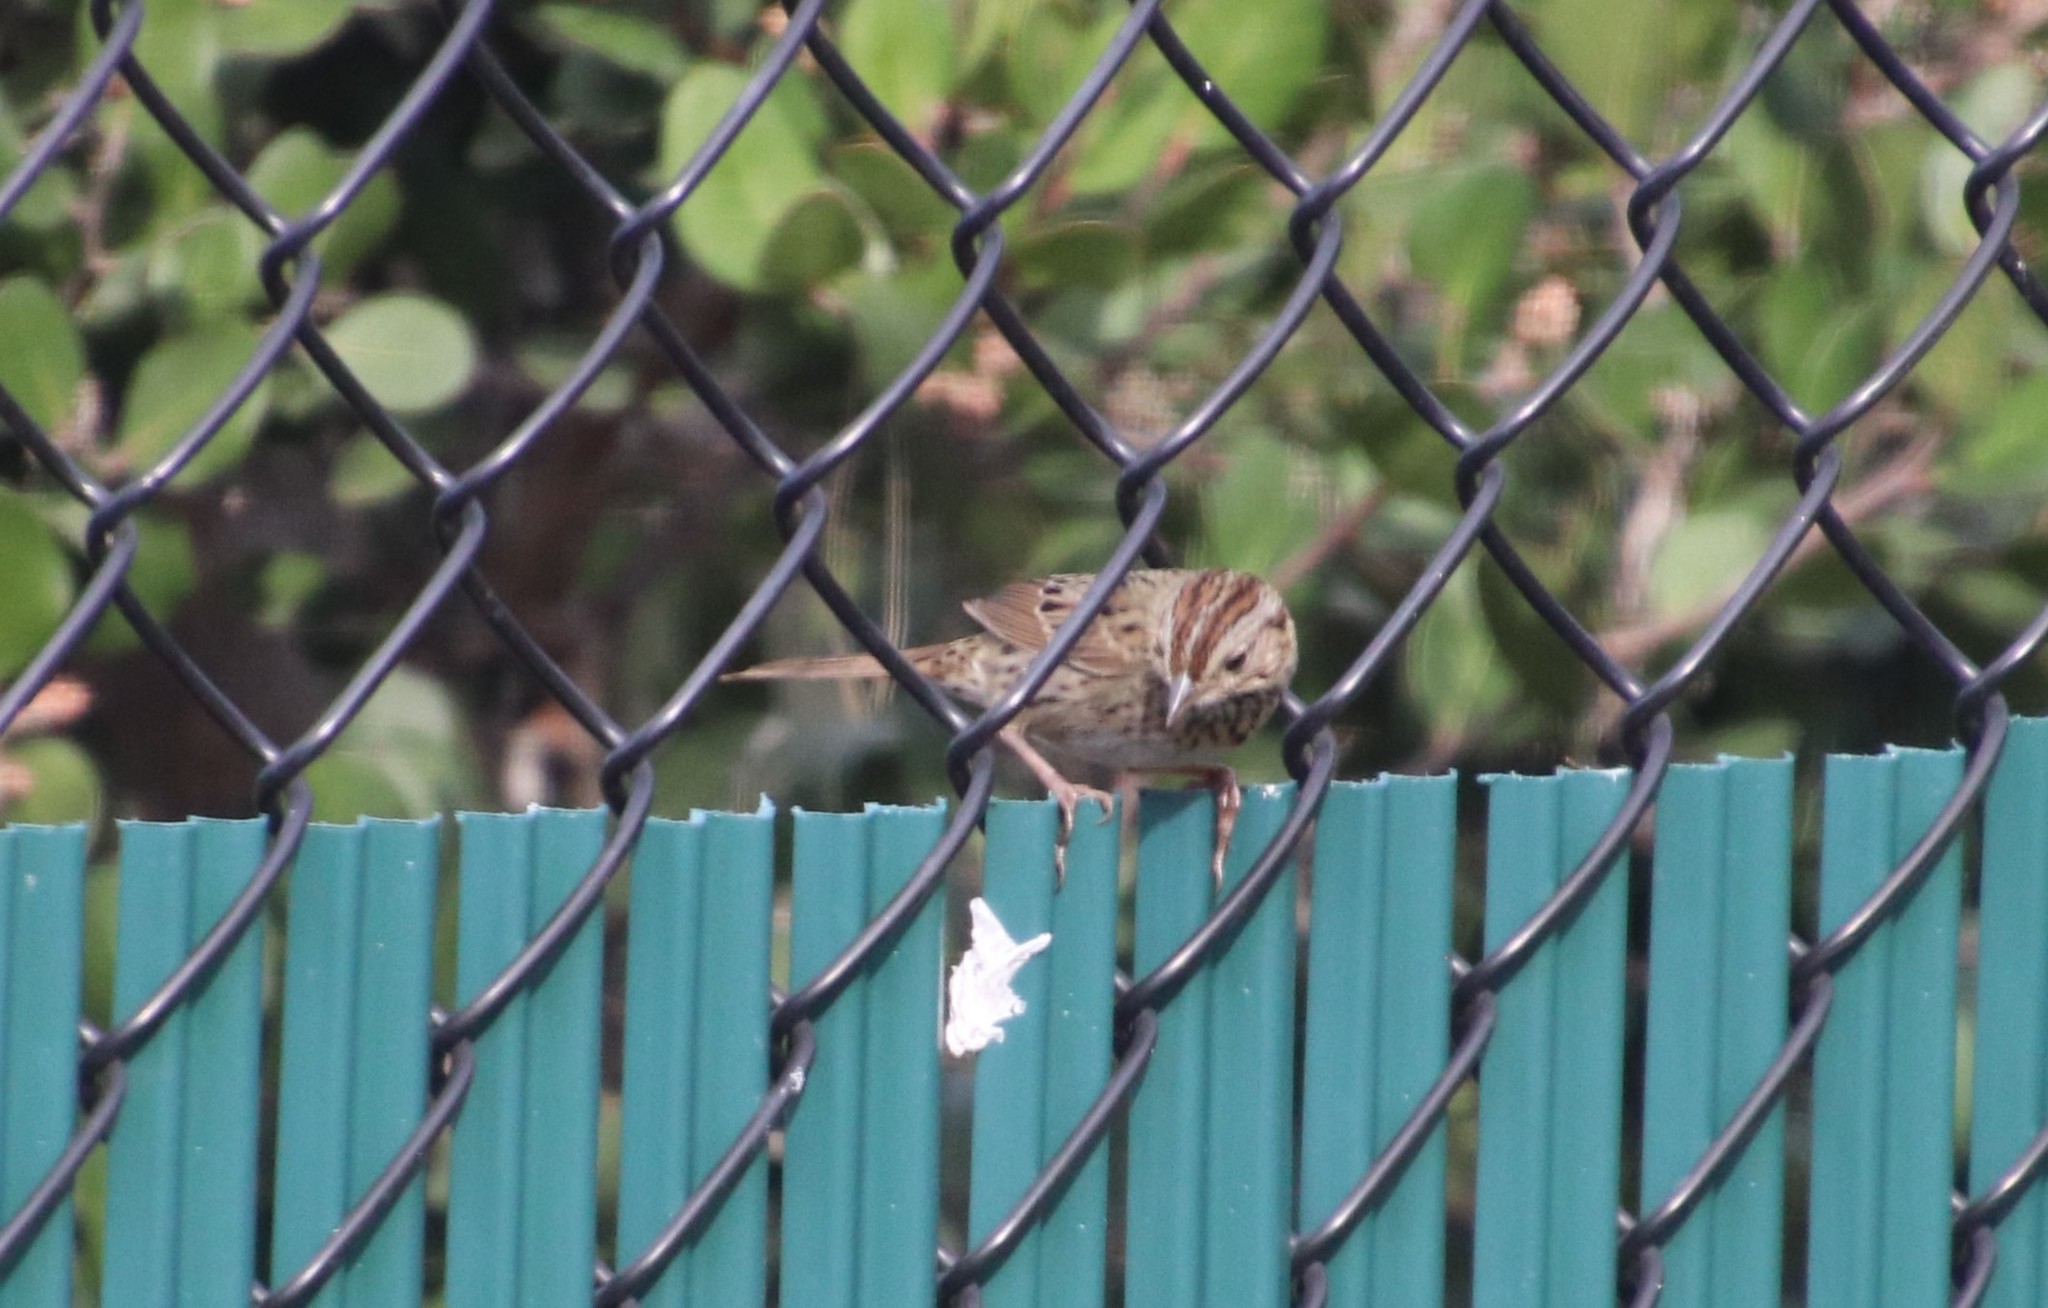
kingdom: Animalia
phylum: Chordata
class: Aves
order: Passeriformes
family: Passerellidae
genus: Melospiza
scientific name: Melospiza lincolnii
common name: Lincoln's sparrow
